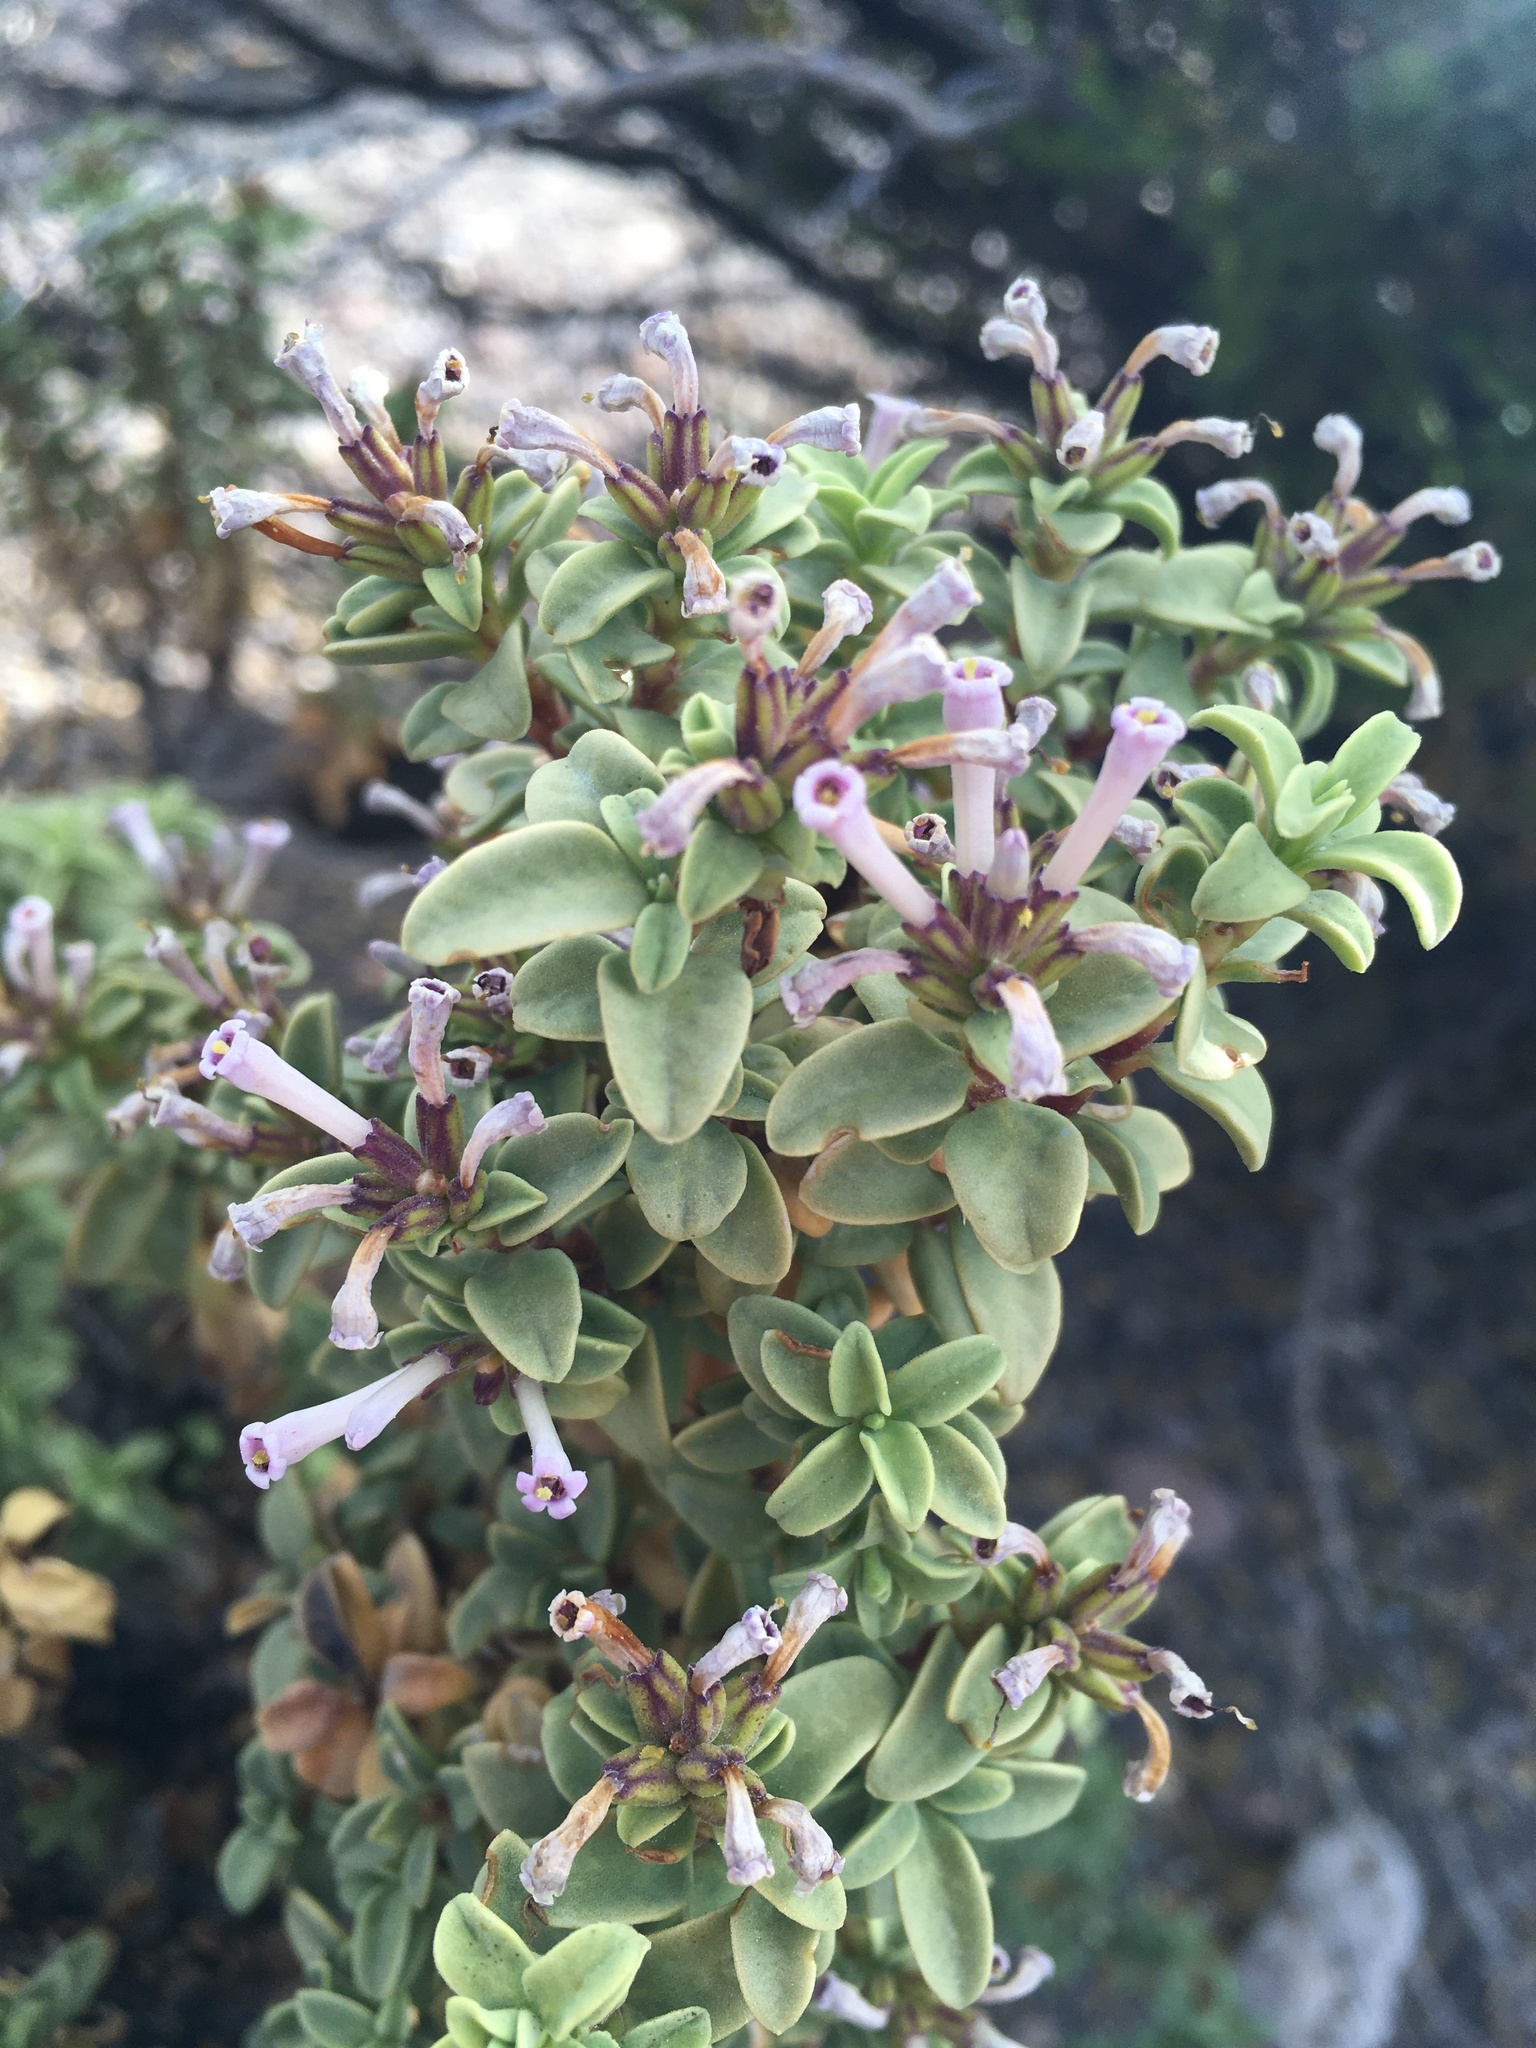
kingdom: Plantae
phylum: Tracheophyta
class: Magnoliopsida
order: Lamiales
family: Verbenaceae
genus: Lampayo
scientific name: Lampayo officinalis
